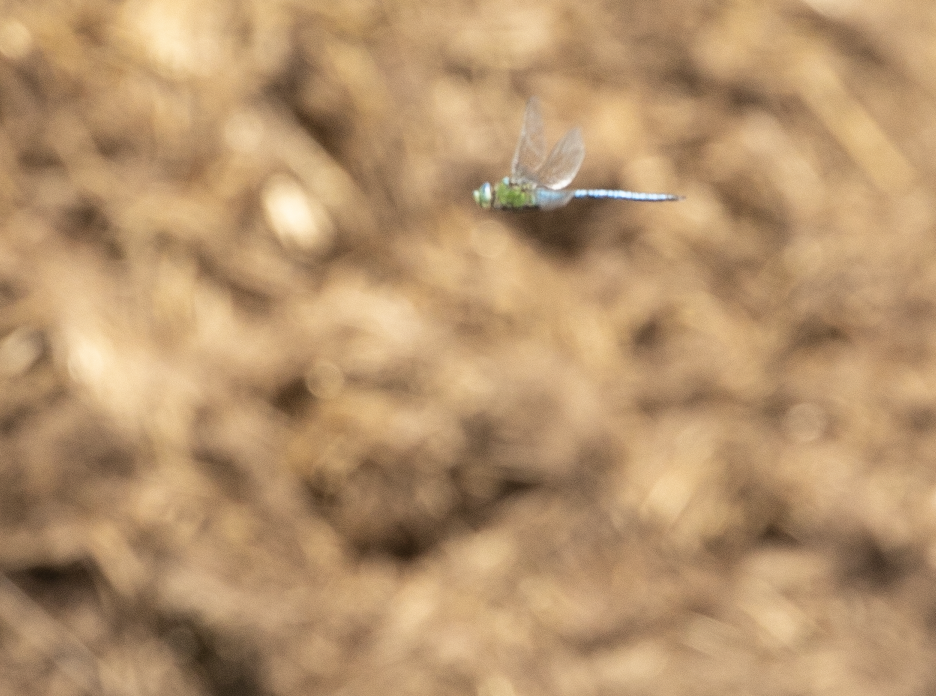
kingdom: Animalia
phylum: Arthropoda
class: Insecta
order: Odonata
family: Aeshnidae
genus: Anax
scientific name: Anax imperator
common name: Emperor dragonfly
